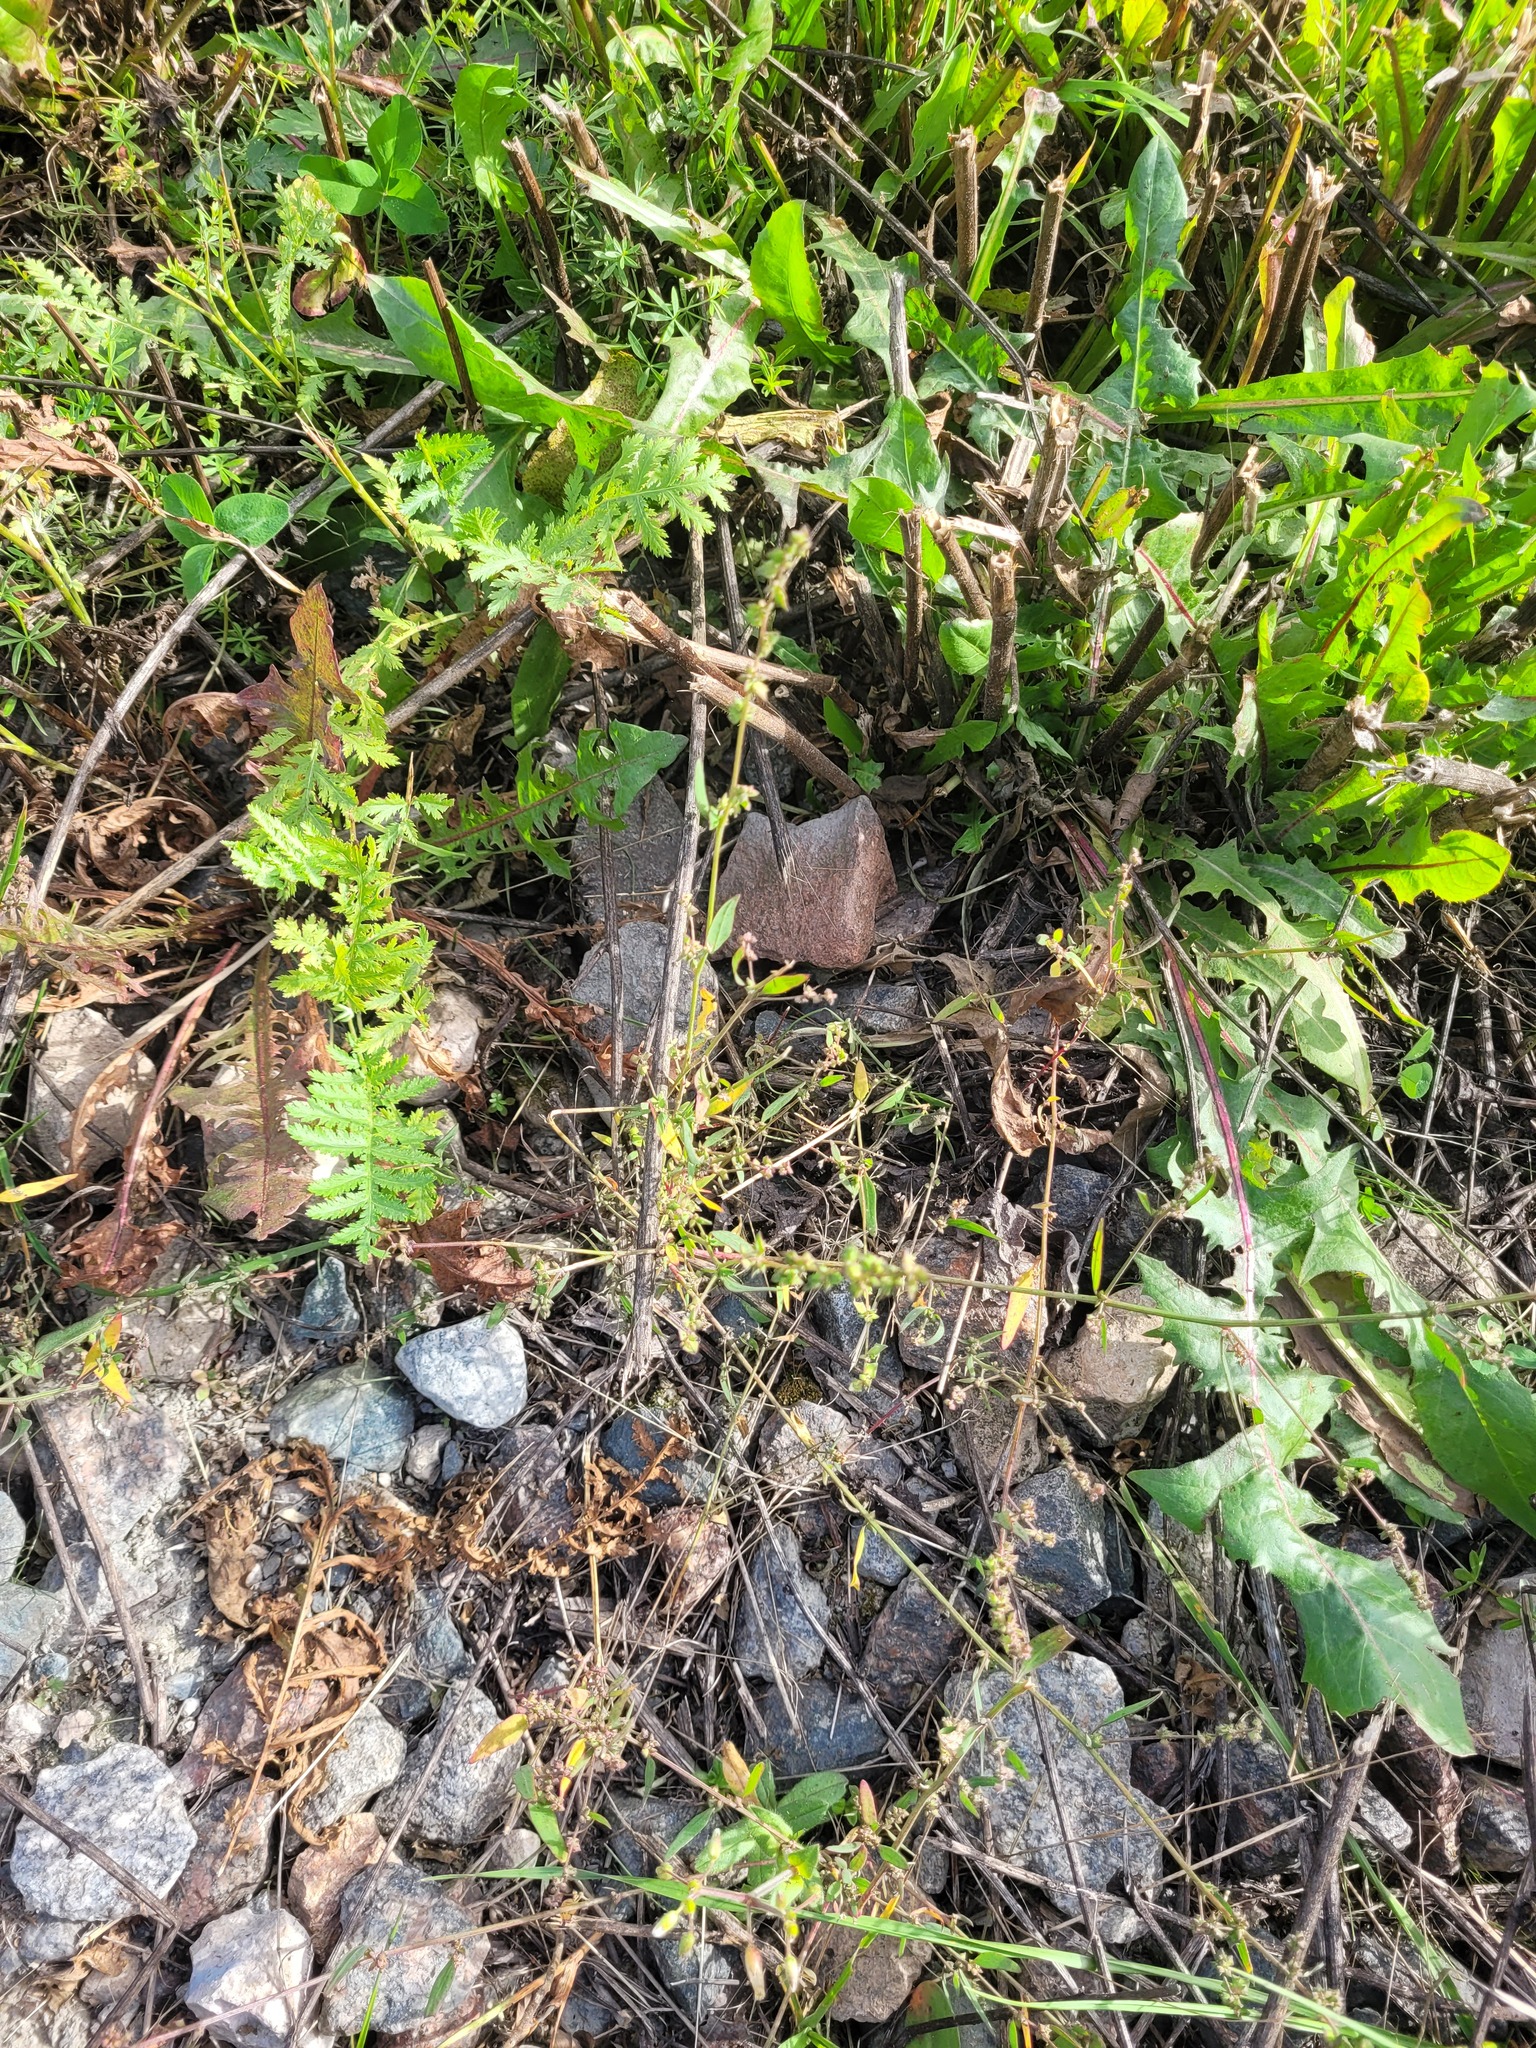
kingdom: Plantae
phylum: Tracheophyta
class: Magnoliopsida
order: Caryophyllales
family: Amaranthaceae
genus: Atriplex
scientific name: Atriplex patula
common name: Common orache
